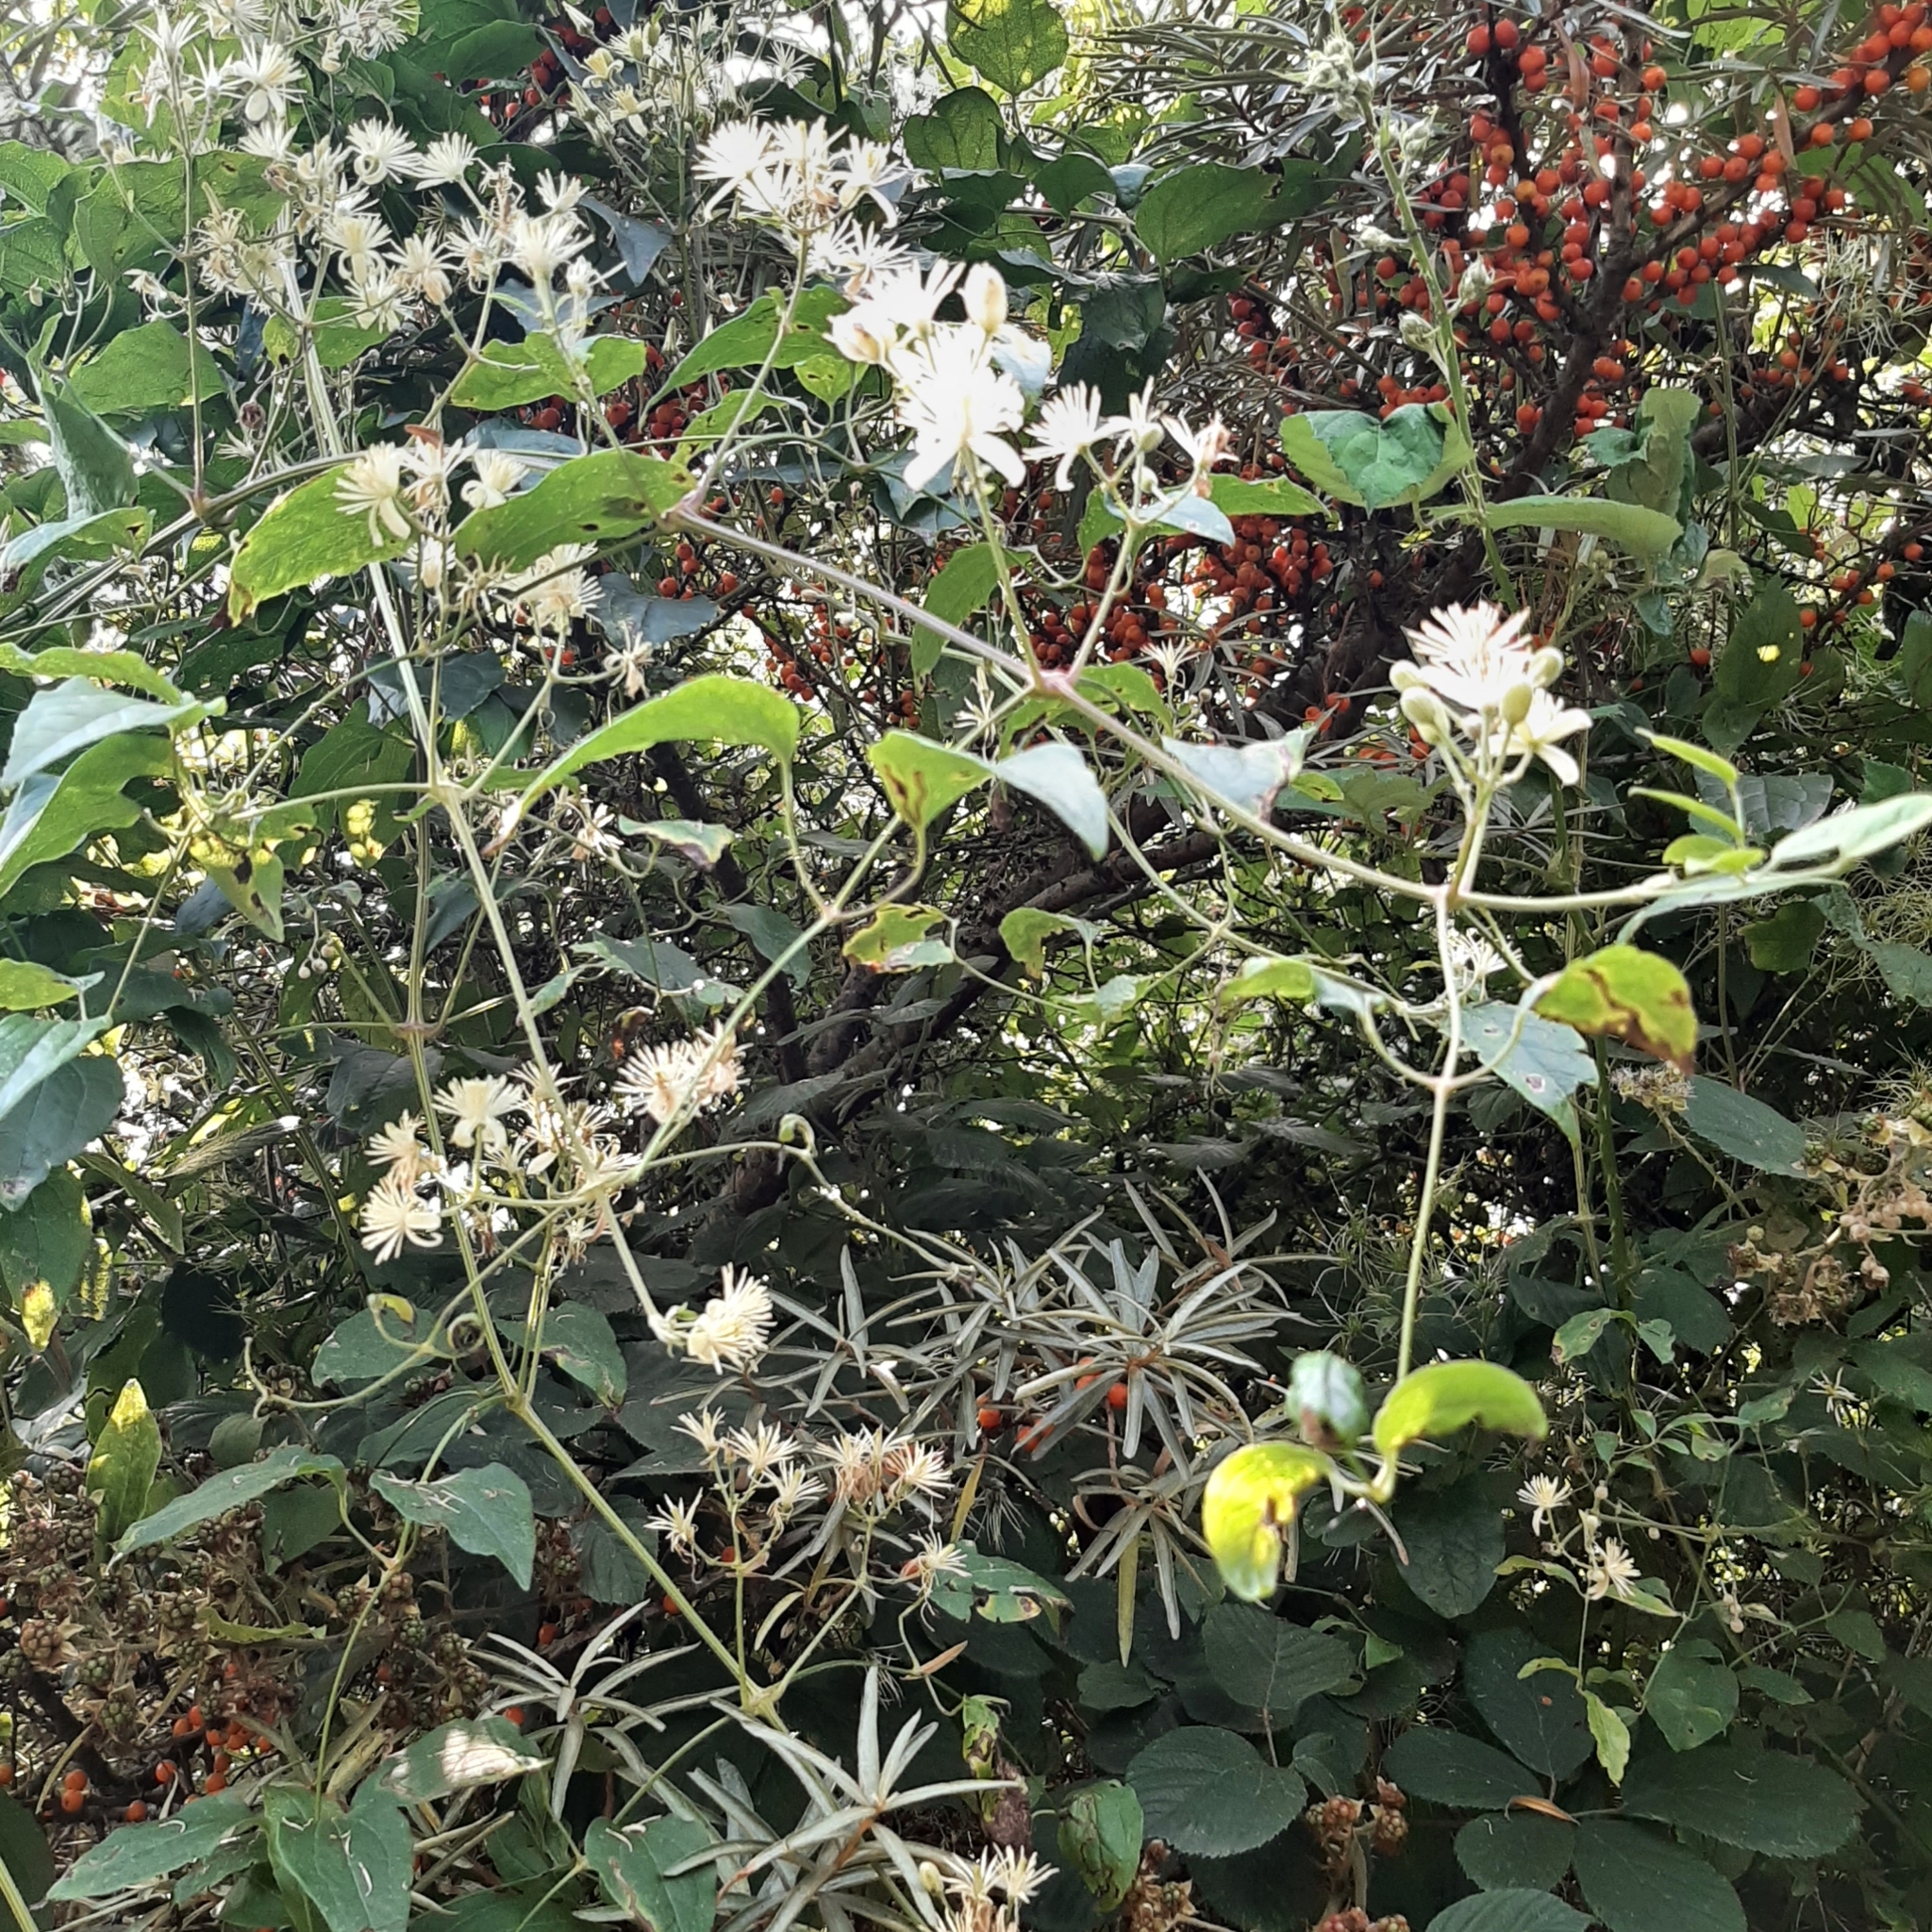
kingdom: Plantae
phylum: Tracheophyta
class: Magnoliopsida
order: Ranunculales
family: Ranunculaceae
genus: Clematis
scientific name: Clematis vitalba
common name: Evergreen clematis
